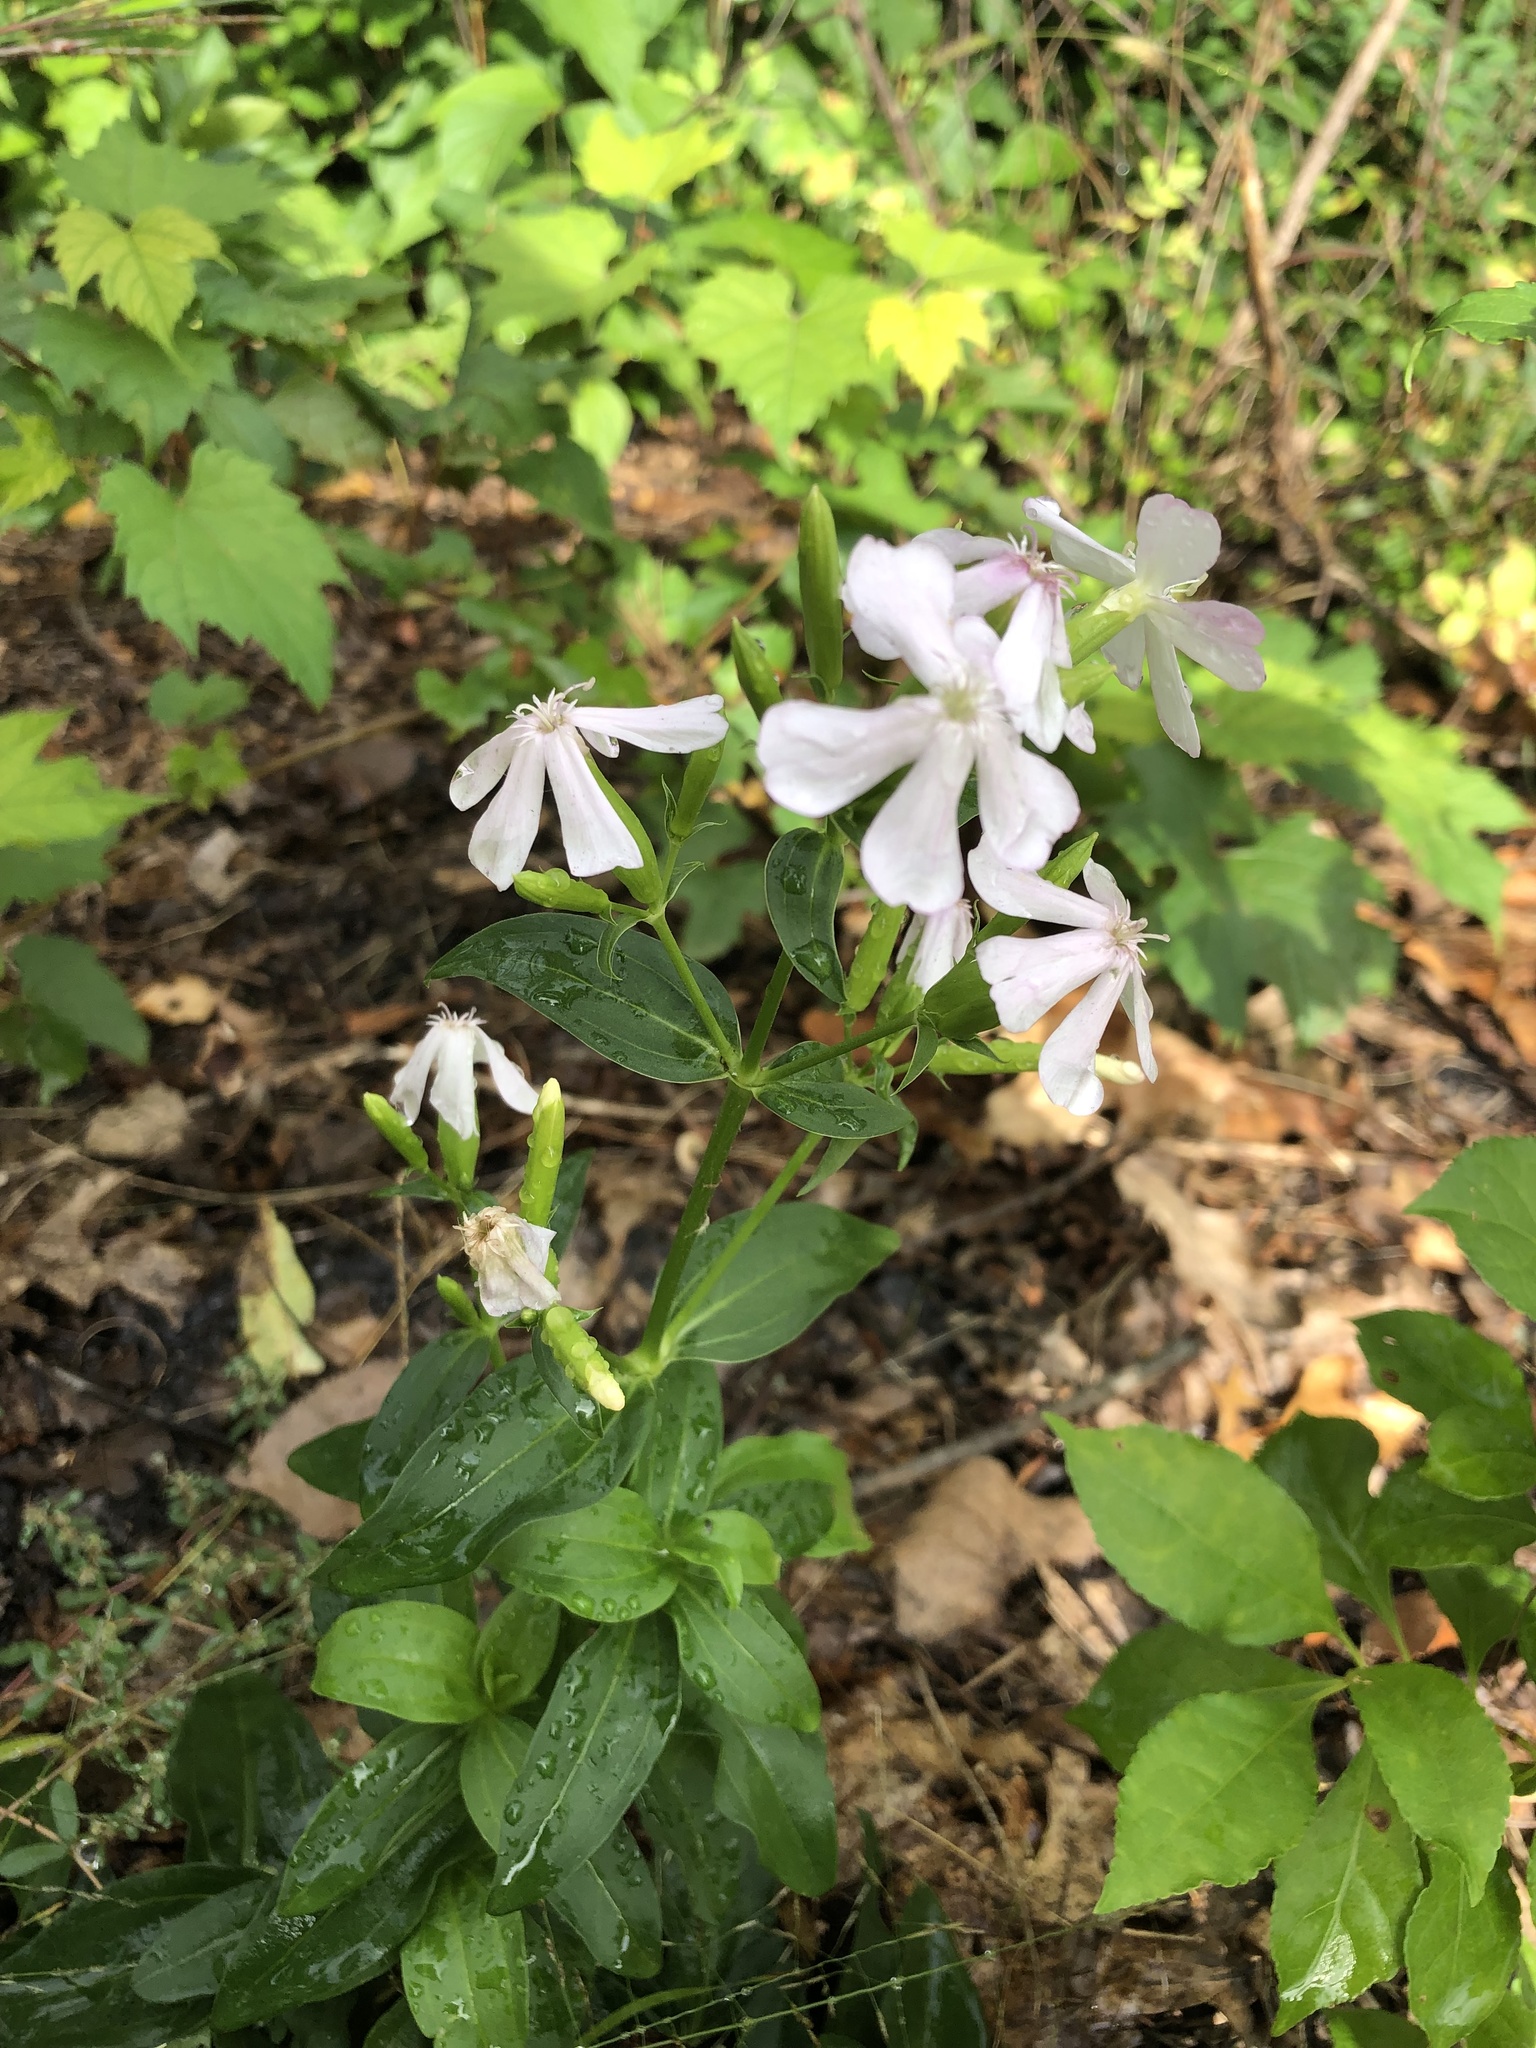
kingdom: Plantae
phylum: Tracheophyta
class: Magnoliopsida
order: Caryophyllales
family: Caryophyllaceae
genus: Saponaria
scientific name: Saponaria officinalis
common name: Soapwort
